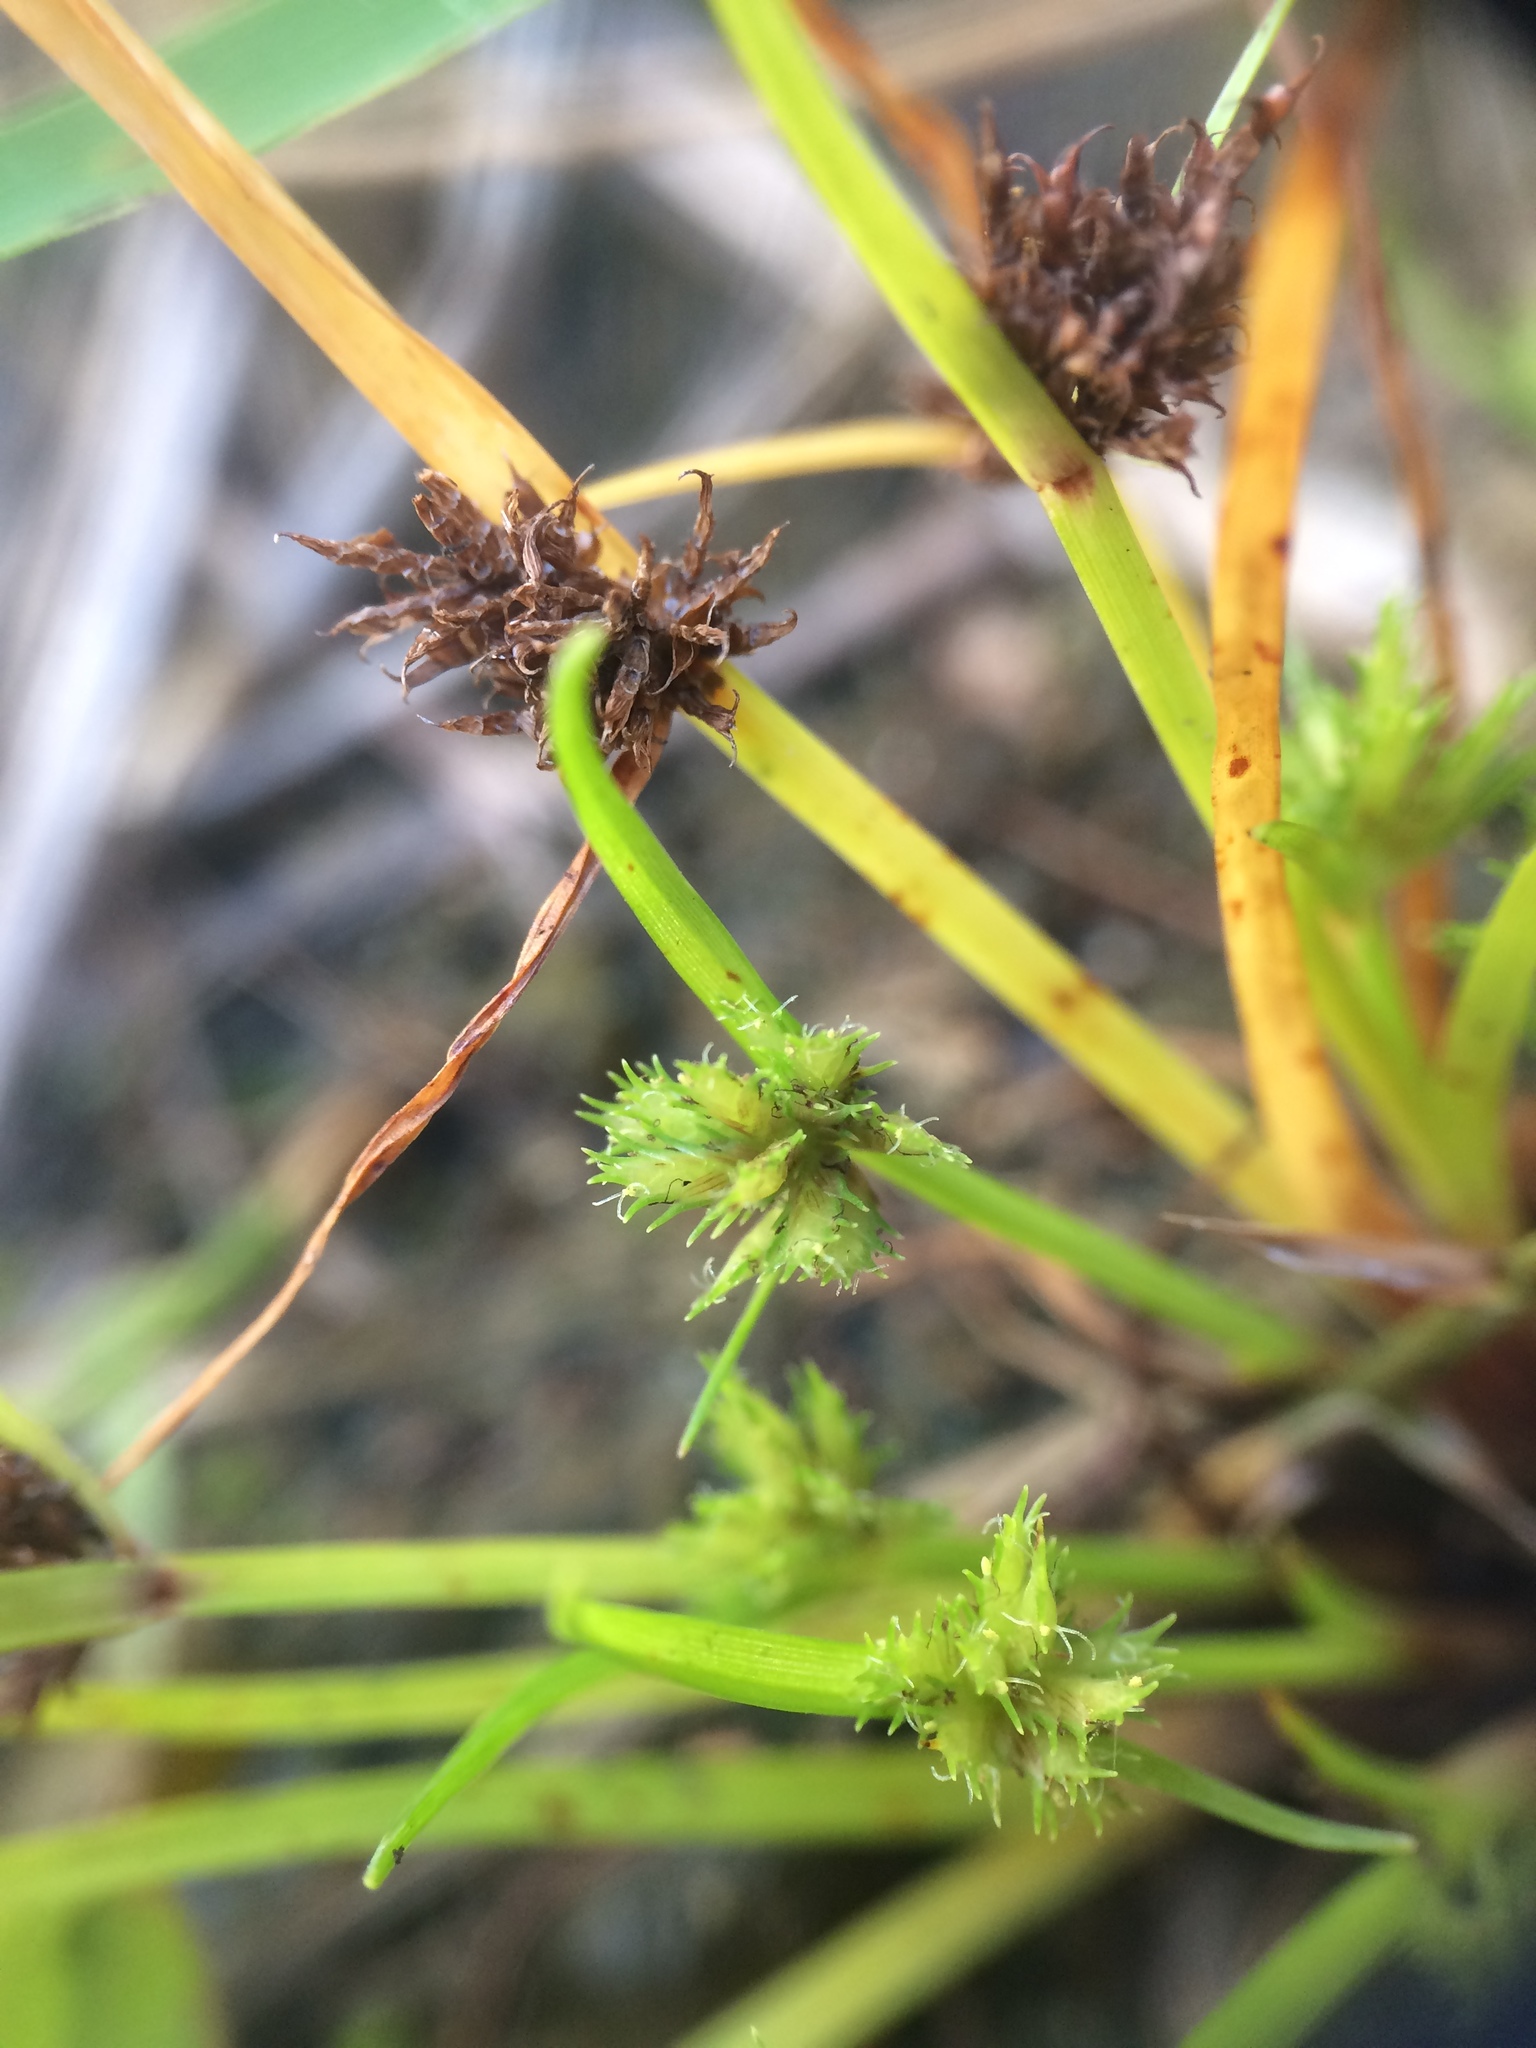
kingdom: Plantae
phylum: Tracheophyta
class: Liliopsida
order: Poales
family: Cyperaceae
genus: Cyperus
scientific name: Cyperus squarrosus
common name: Awned cyperus
